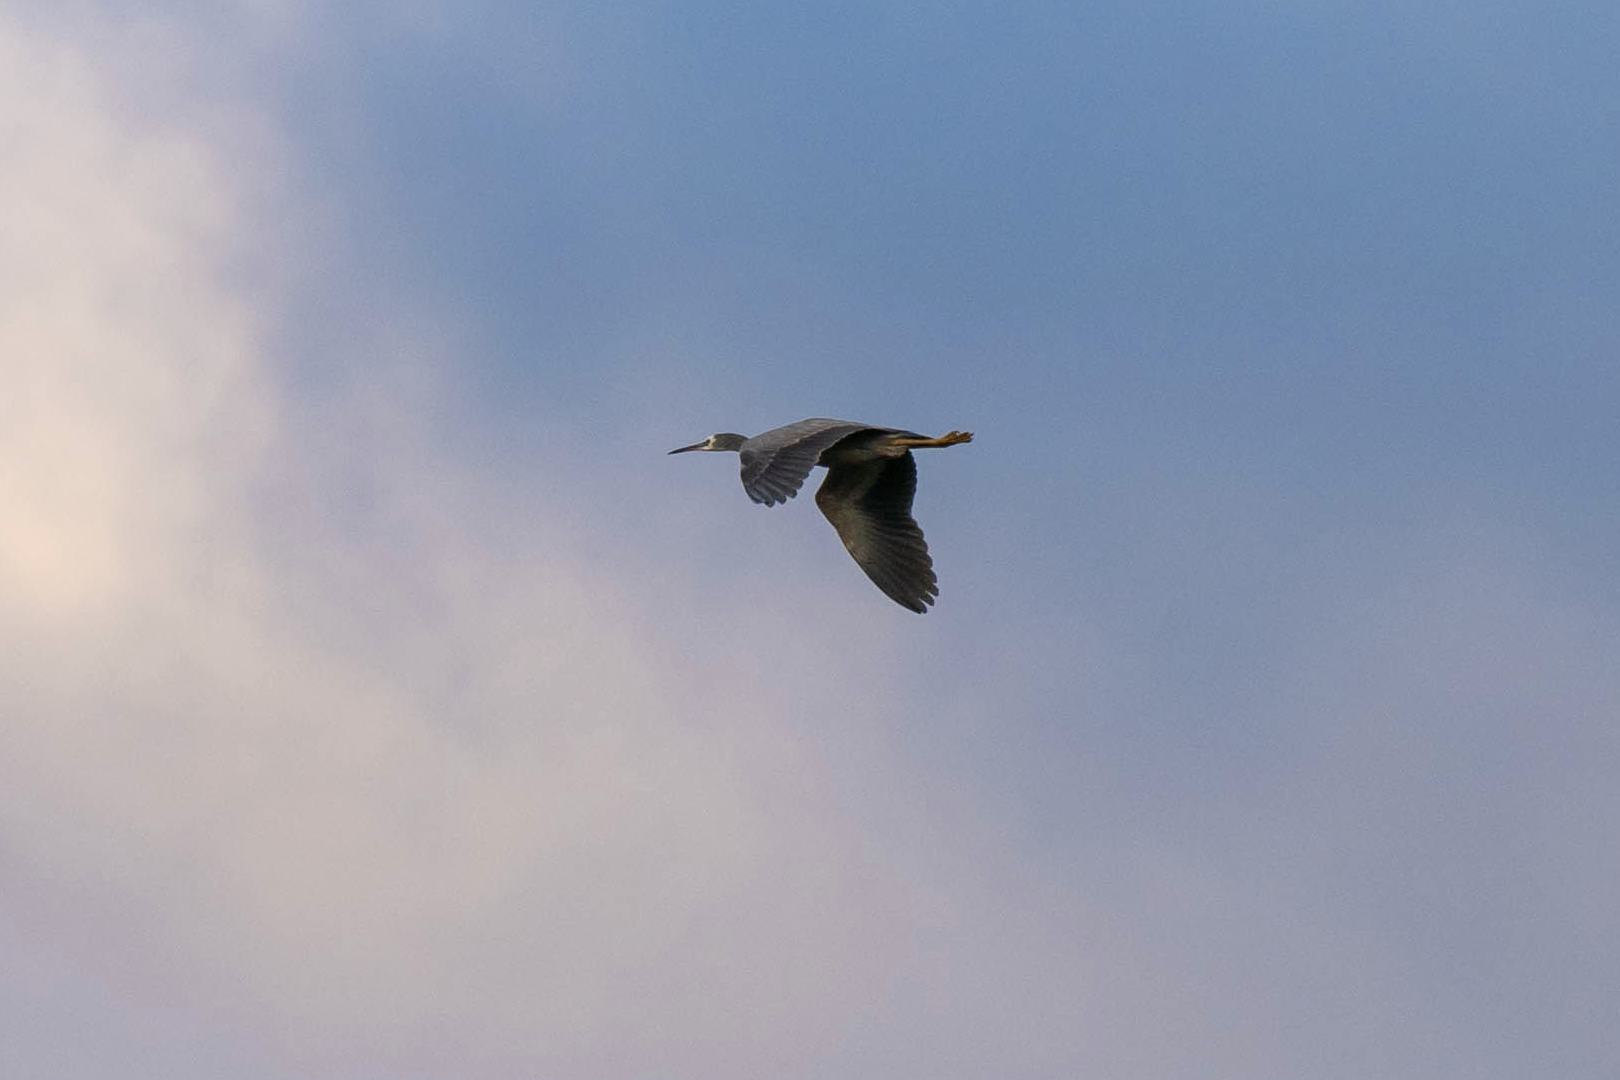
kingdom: Animalia
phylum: Chordata
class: Aves
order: Pelecaniformes
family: Ardeidae
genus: Egretta
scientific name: Egretta novaehollandiae
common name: White-faced heron
